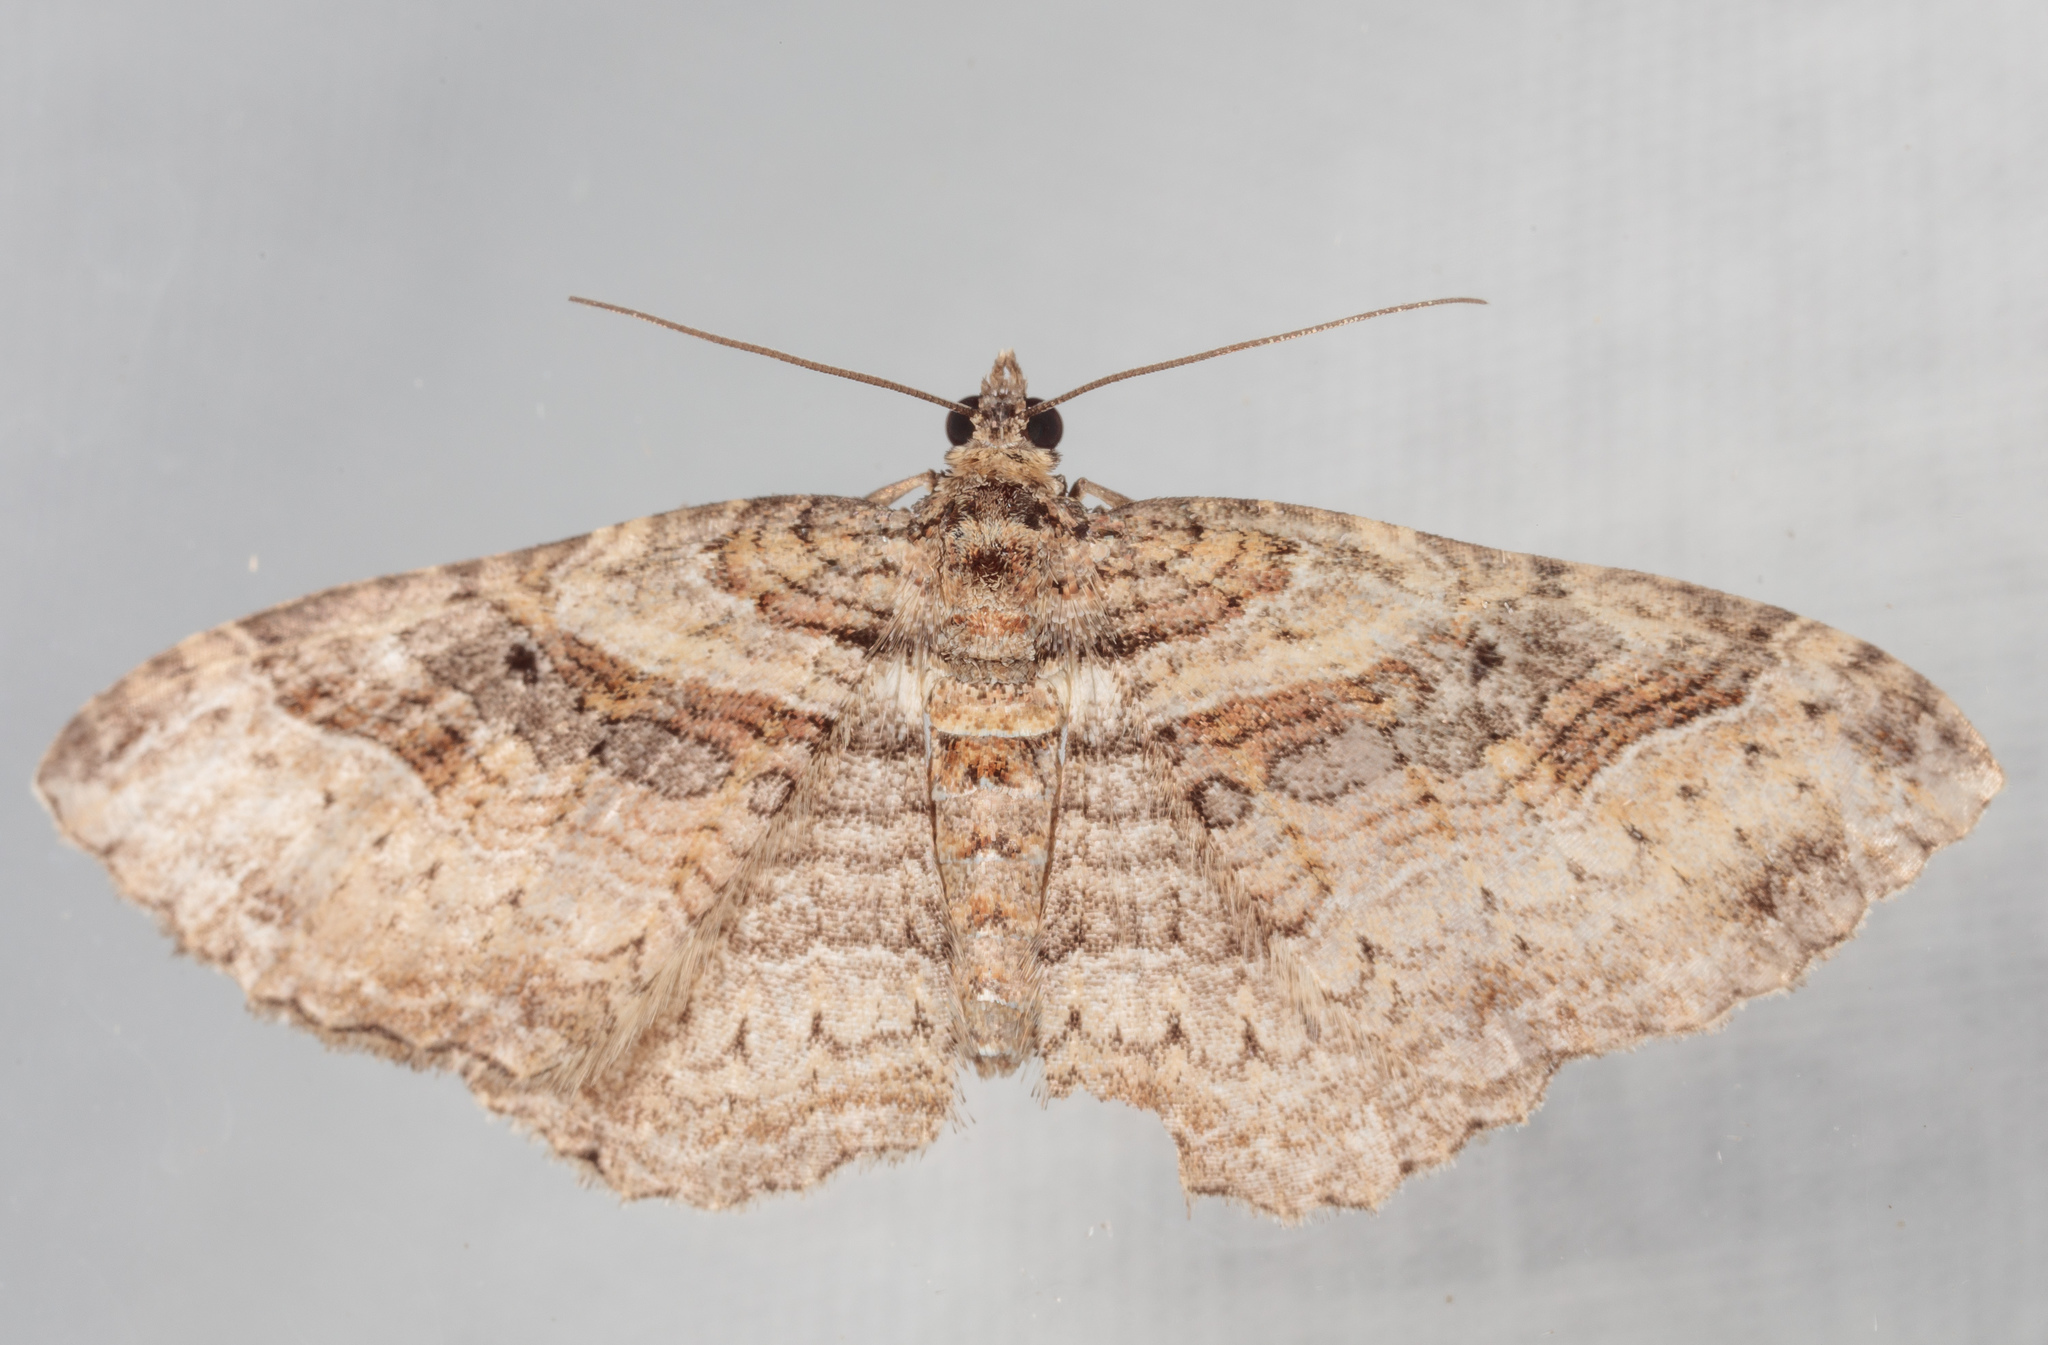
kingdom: Animalia
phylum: Arthropoda
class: Insecta
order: Lepidoptera
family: Geometridae
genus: Costaconvexa
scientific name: Costaconvexa centrostrigaria
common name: Bent-line carpet
